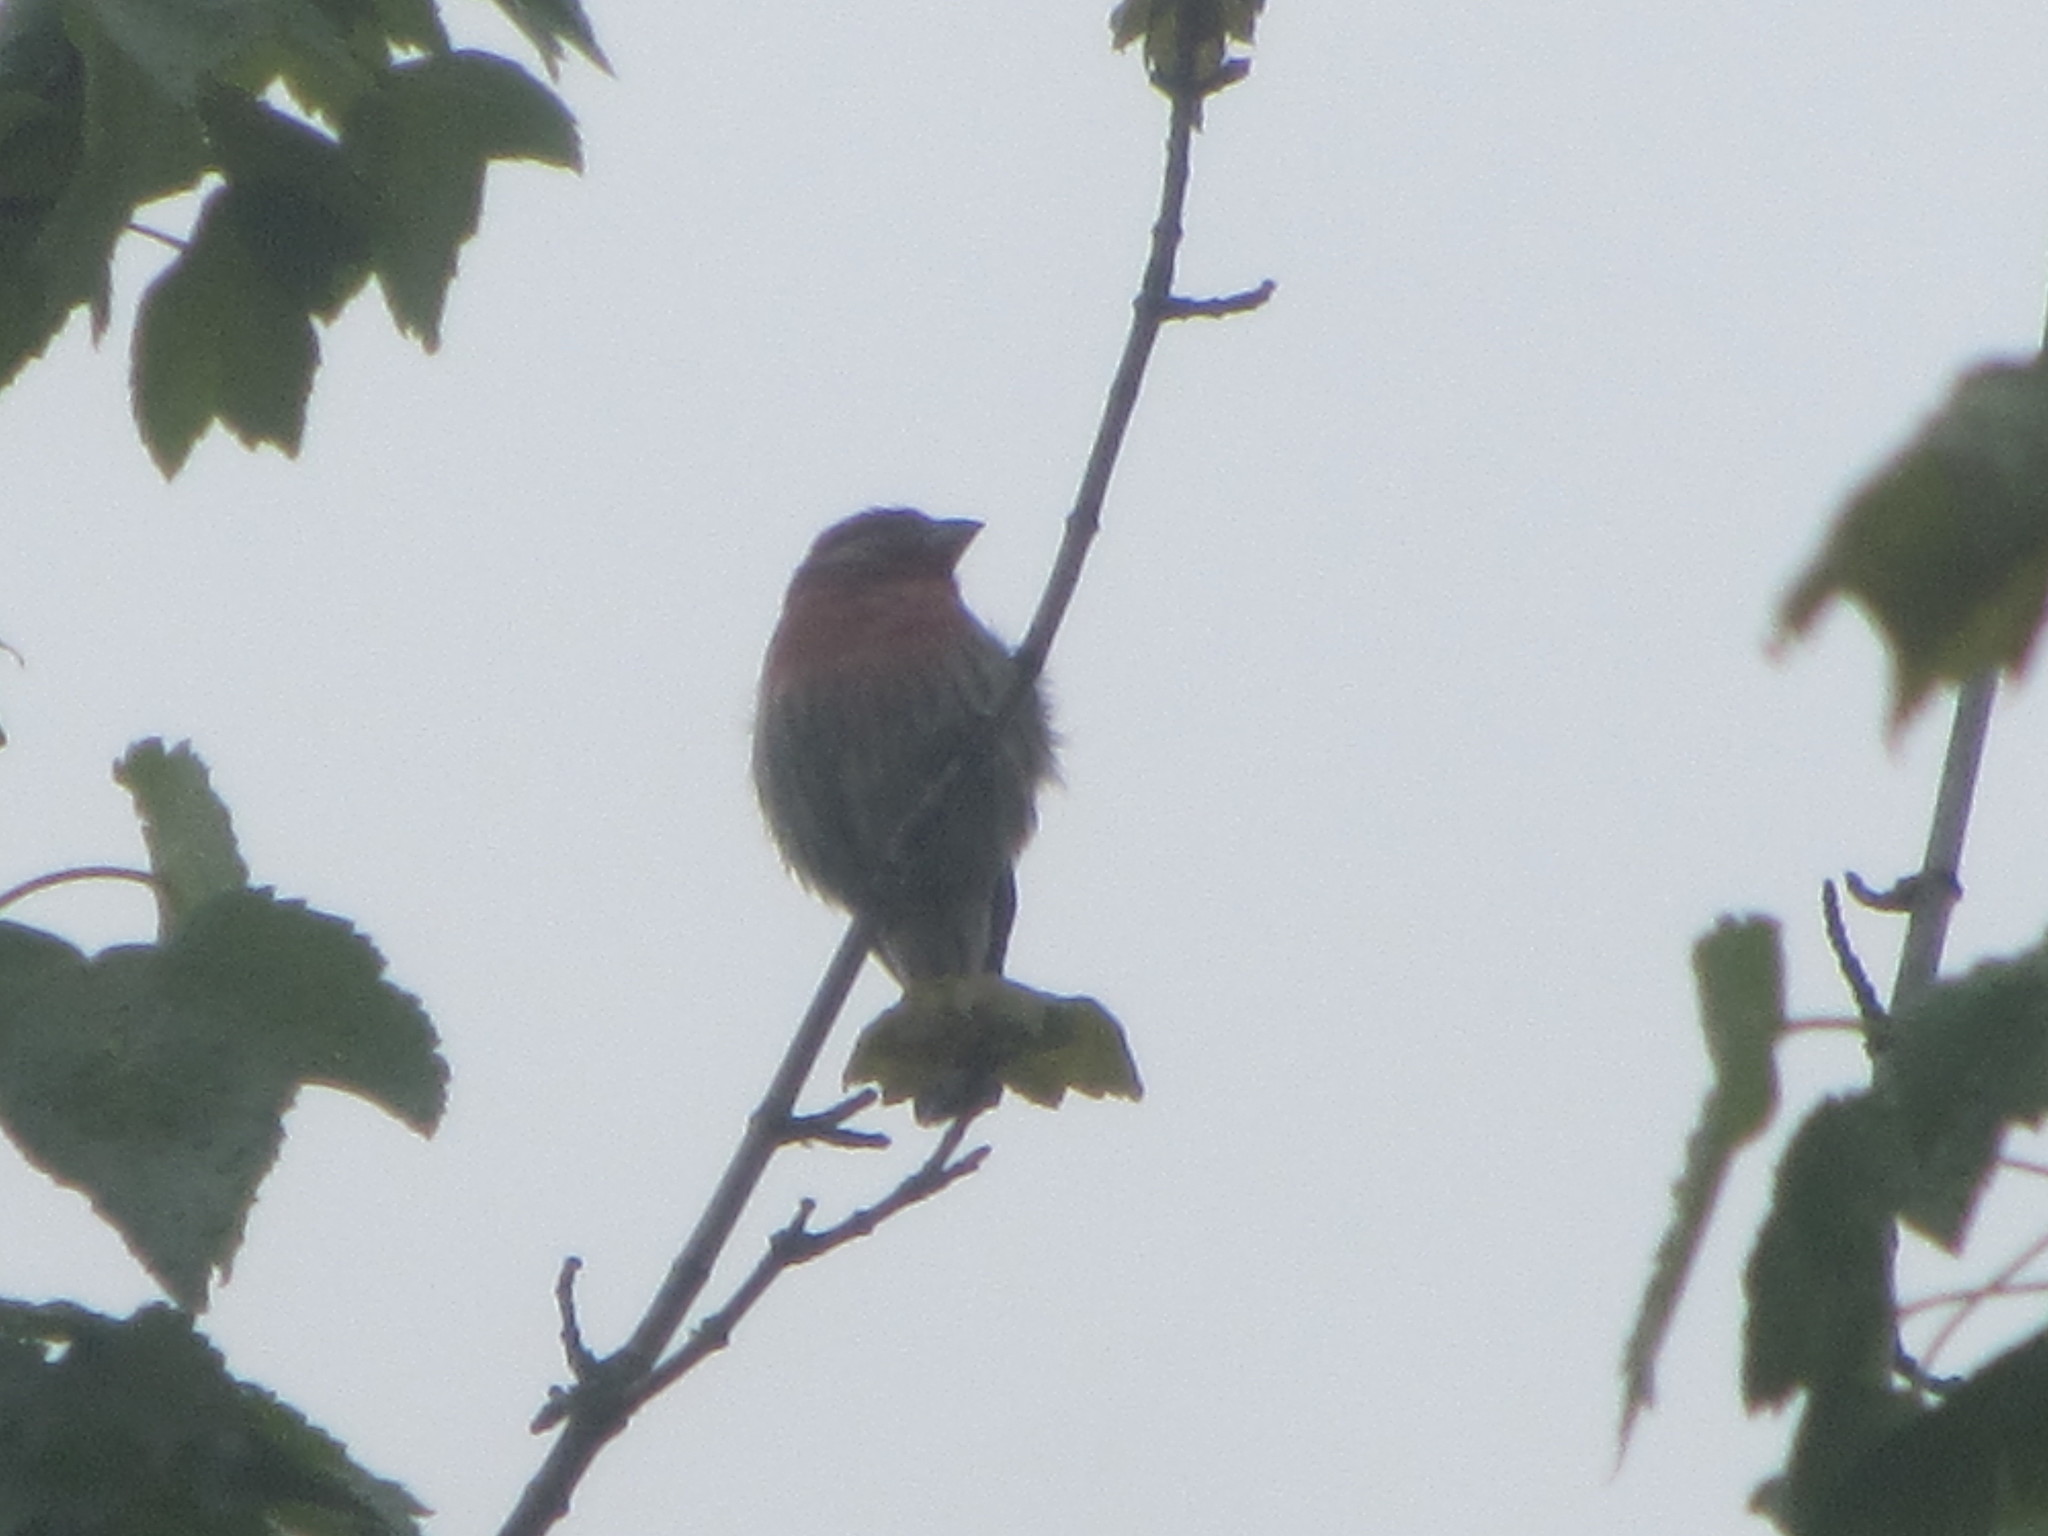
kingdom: Animalia
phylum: Chordata
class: Aves
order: Passeriformes
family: Fringillidae
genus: Haemorhous
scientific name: Haemorhous mexicanus
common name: House finch
